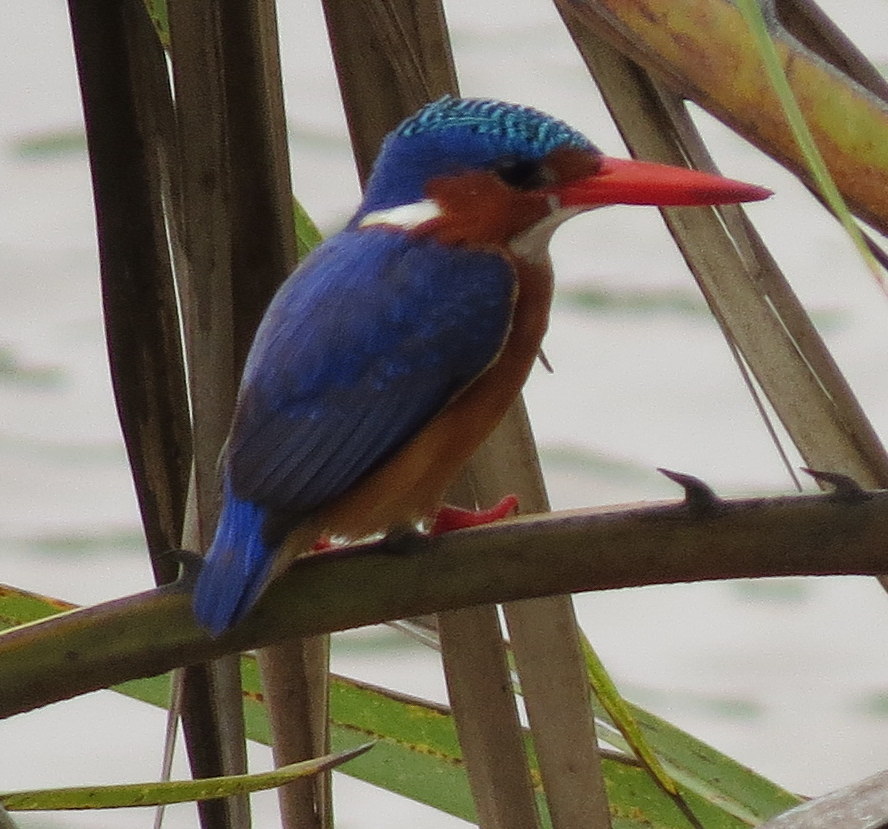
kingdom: Animalia
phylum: Chordata
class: Aves
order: Coraciiformes
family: Alcedinidae
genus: Corythornis
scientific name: Corythornis cristatus
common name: Malachite kingfisher
